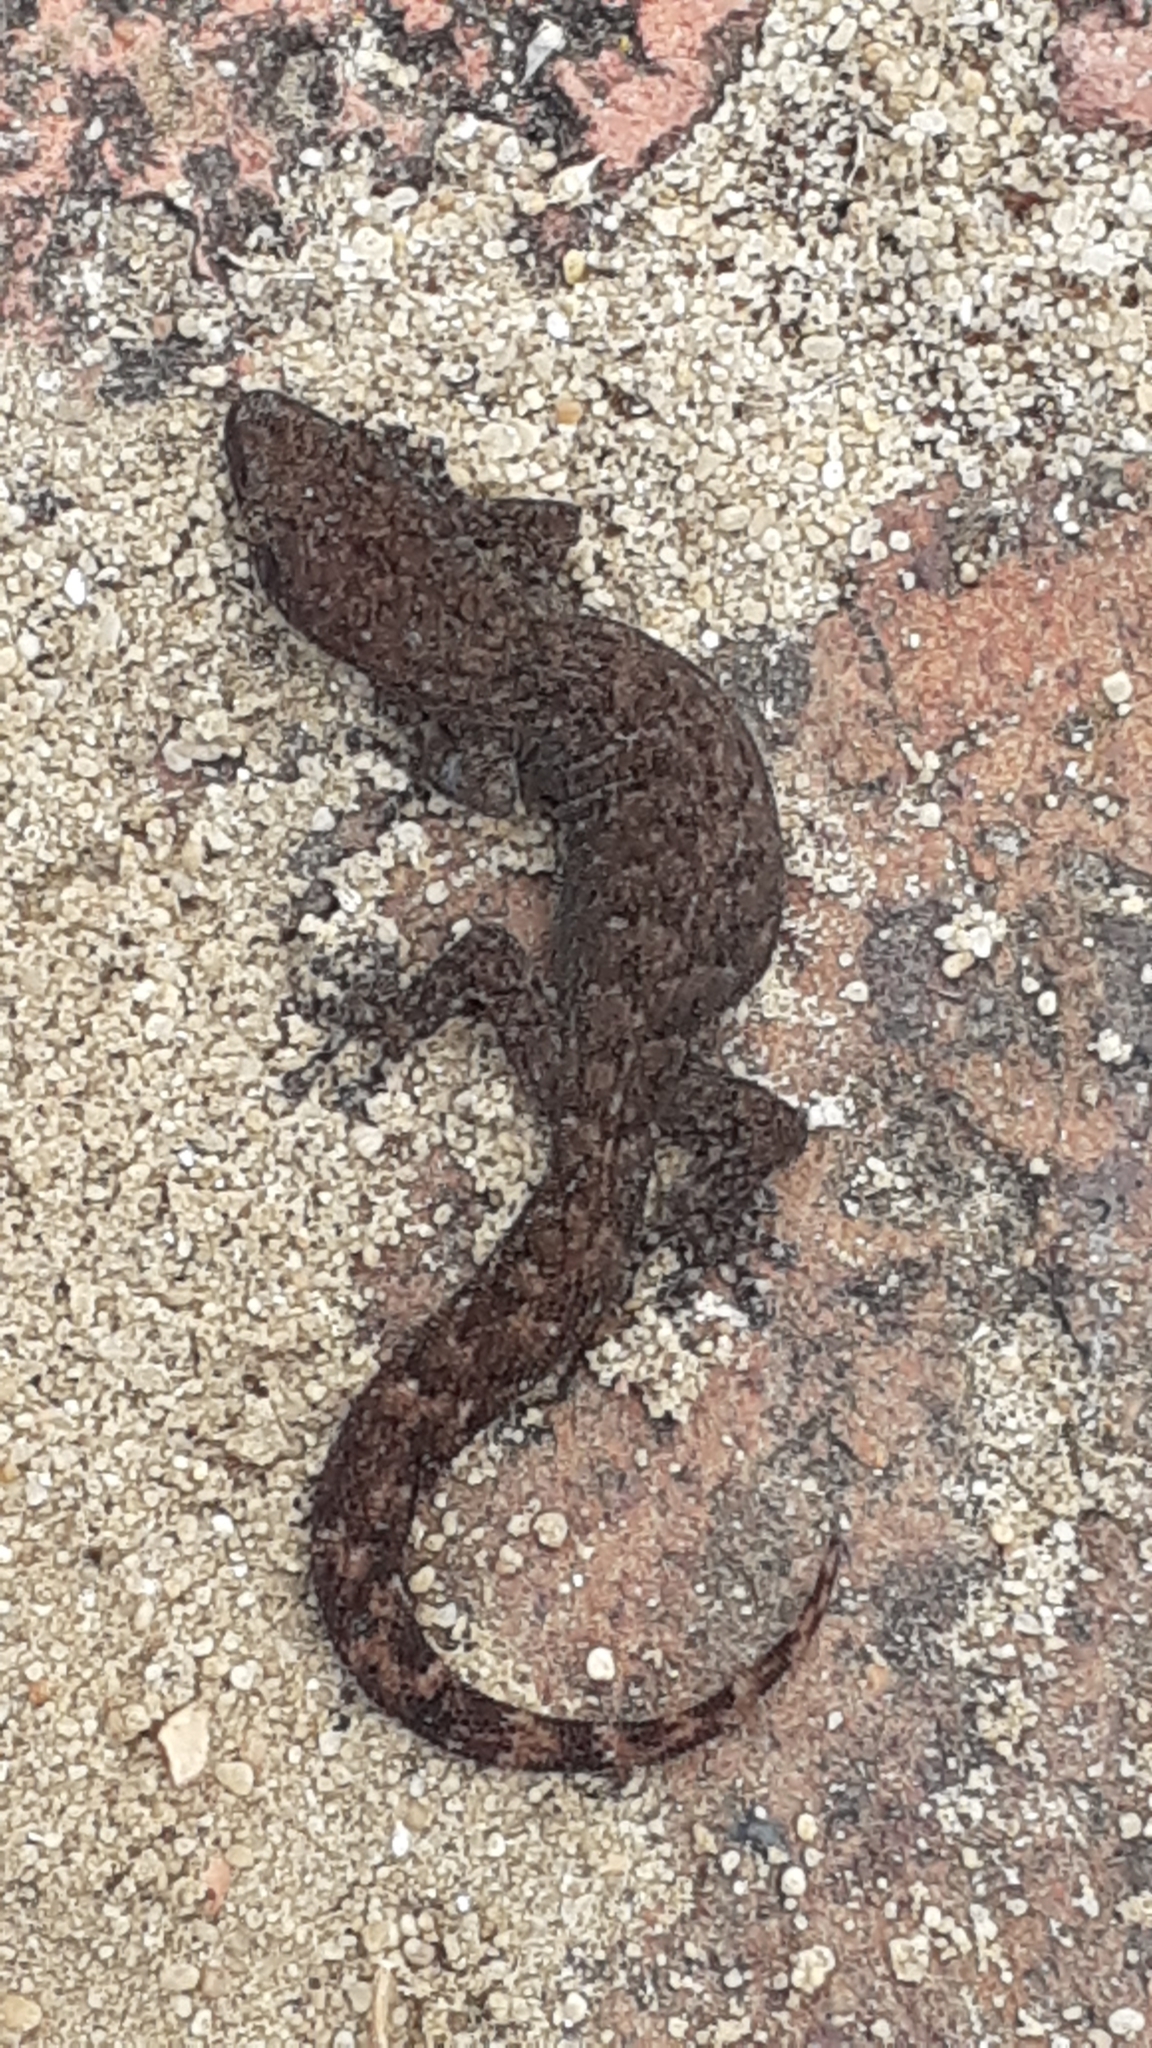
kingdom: Animalia
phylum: Chordata
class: Squamata
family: Gekkonidae
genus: Afrogecko
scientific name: Afrogecko porphyreus
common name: Marbled leaf-toed gecko
